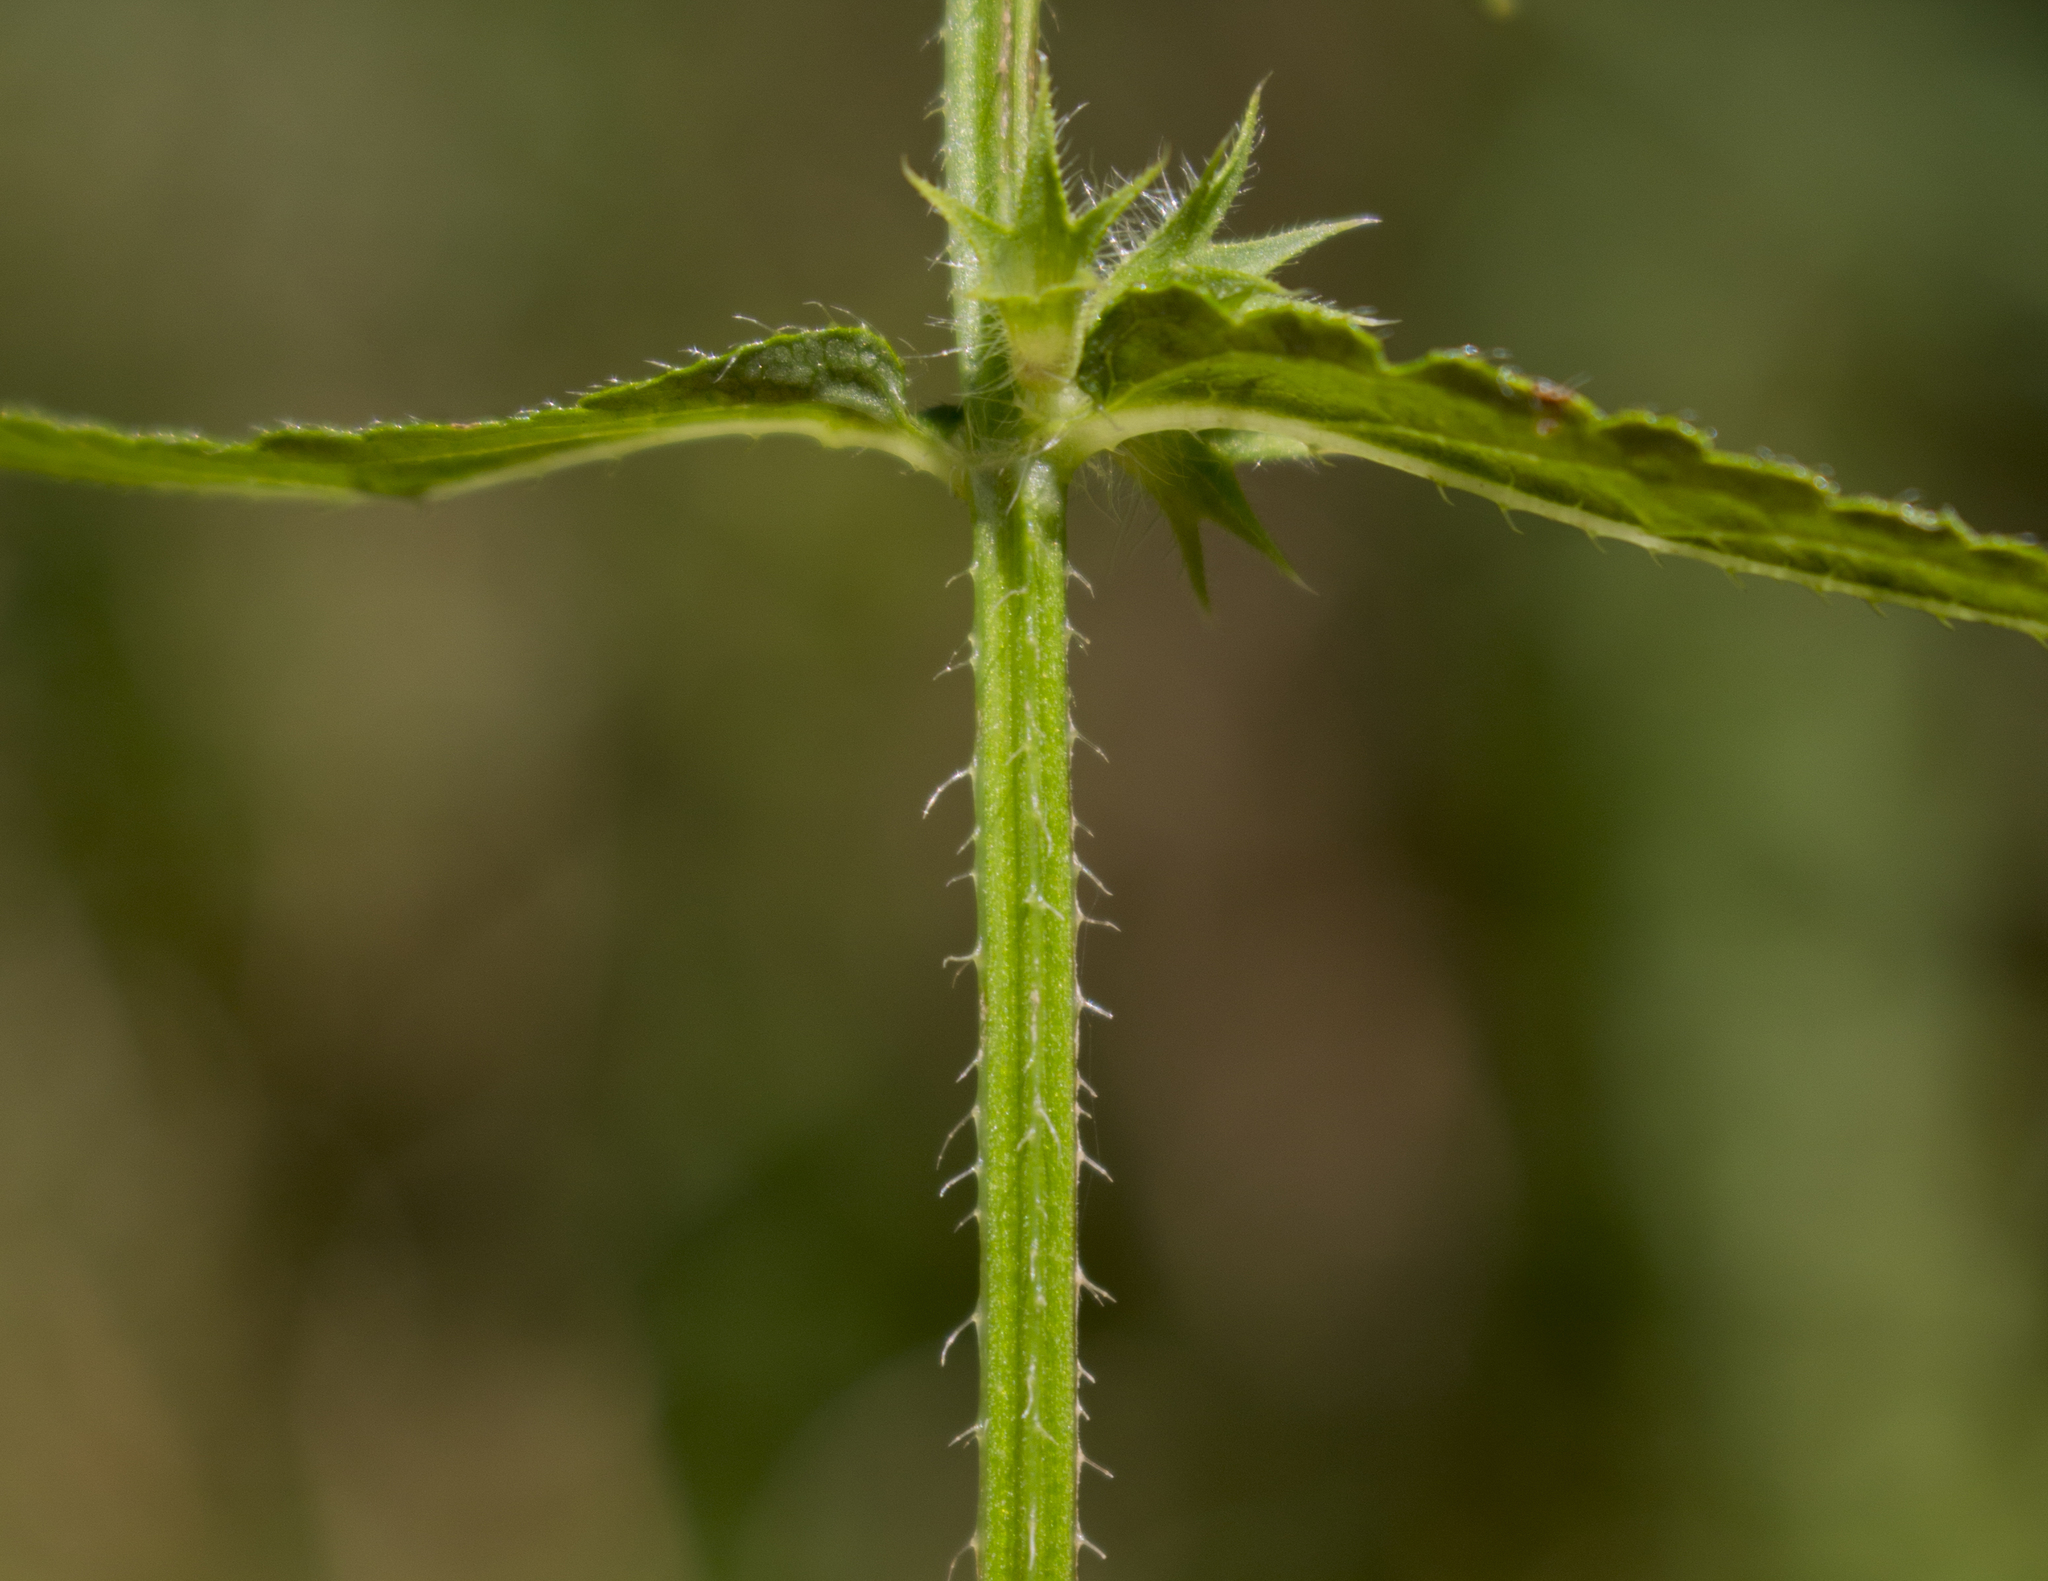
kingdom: Plantae
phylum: Tracheophyta
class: Magnoliopsida
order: Lamiales
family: Lamiaceae
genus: Stachys
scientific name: Stachys hispida
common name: Hispid hedge-nettle
